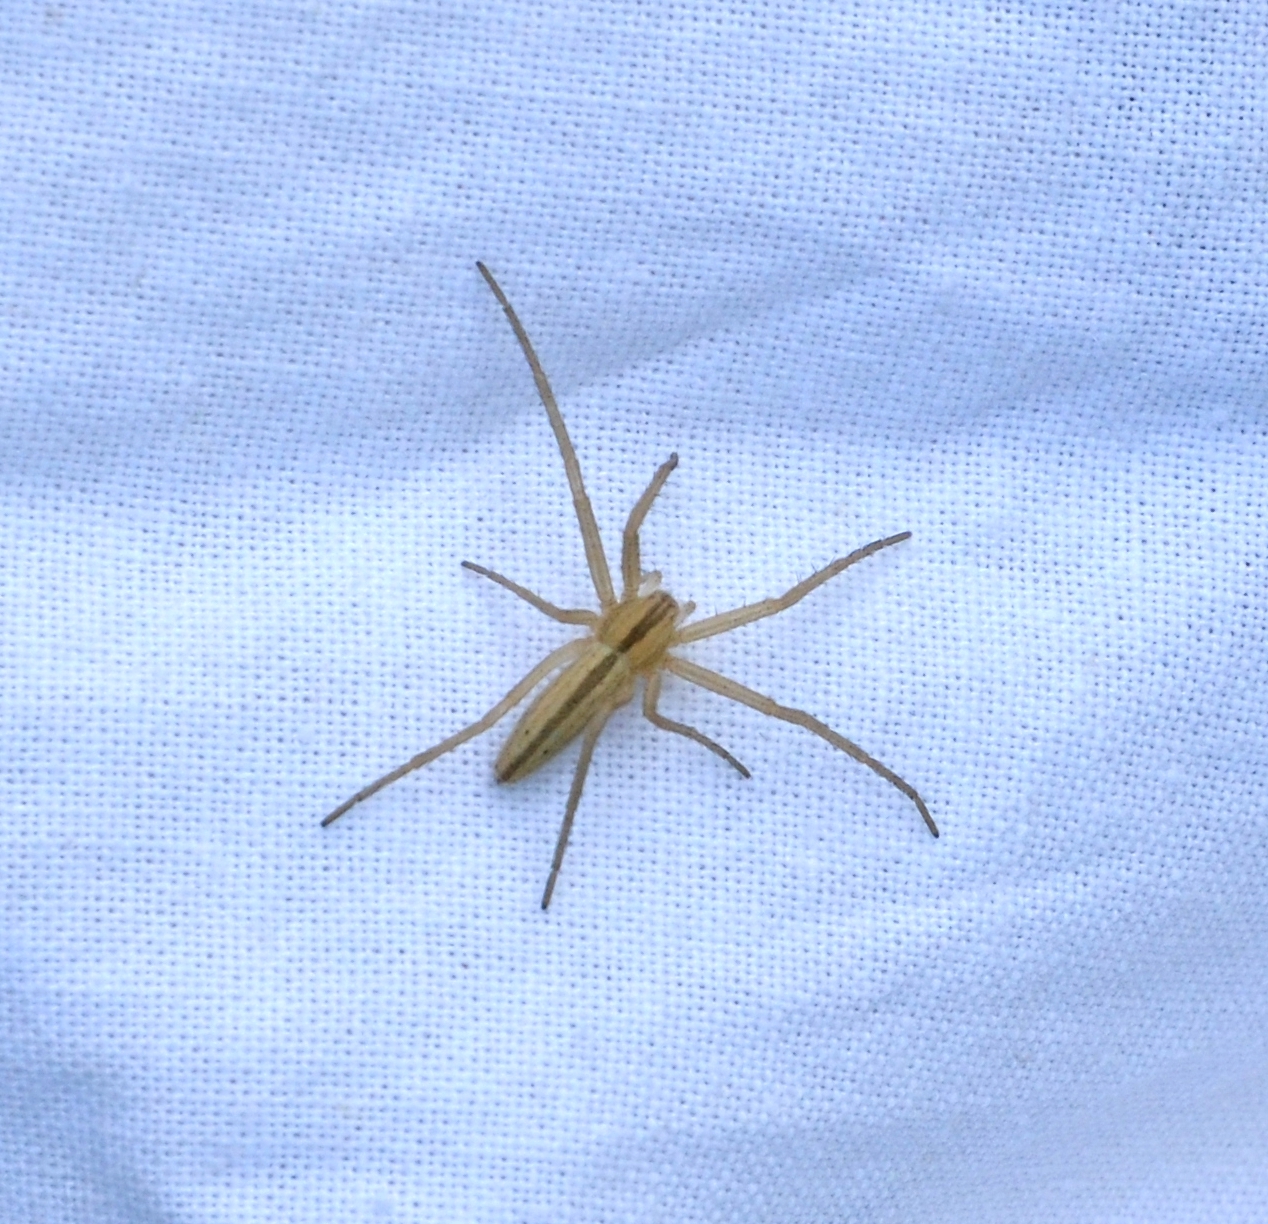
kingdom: Animalia
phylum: Arthropoda
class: Arachnida
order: Araneae
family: Philodromidae
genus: Tibellus
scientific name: Tibellus oblongus
